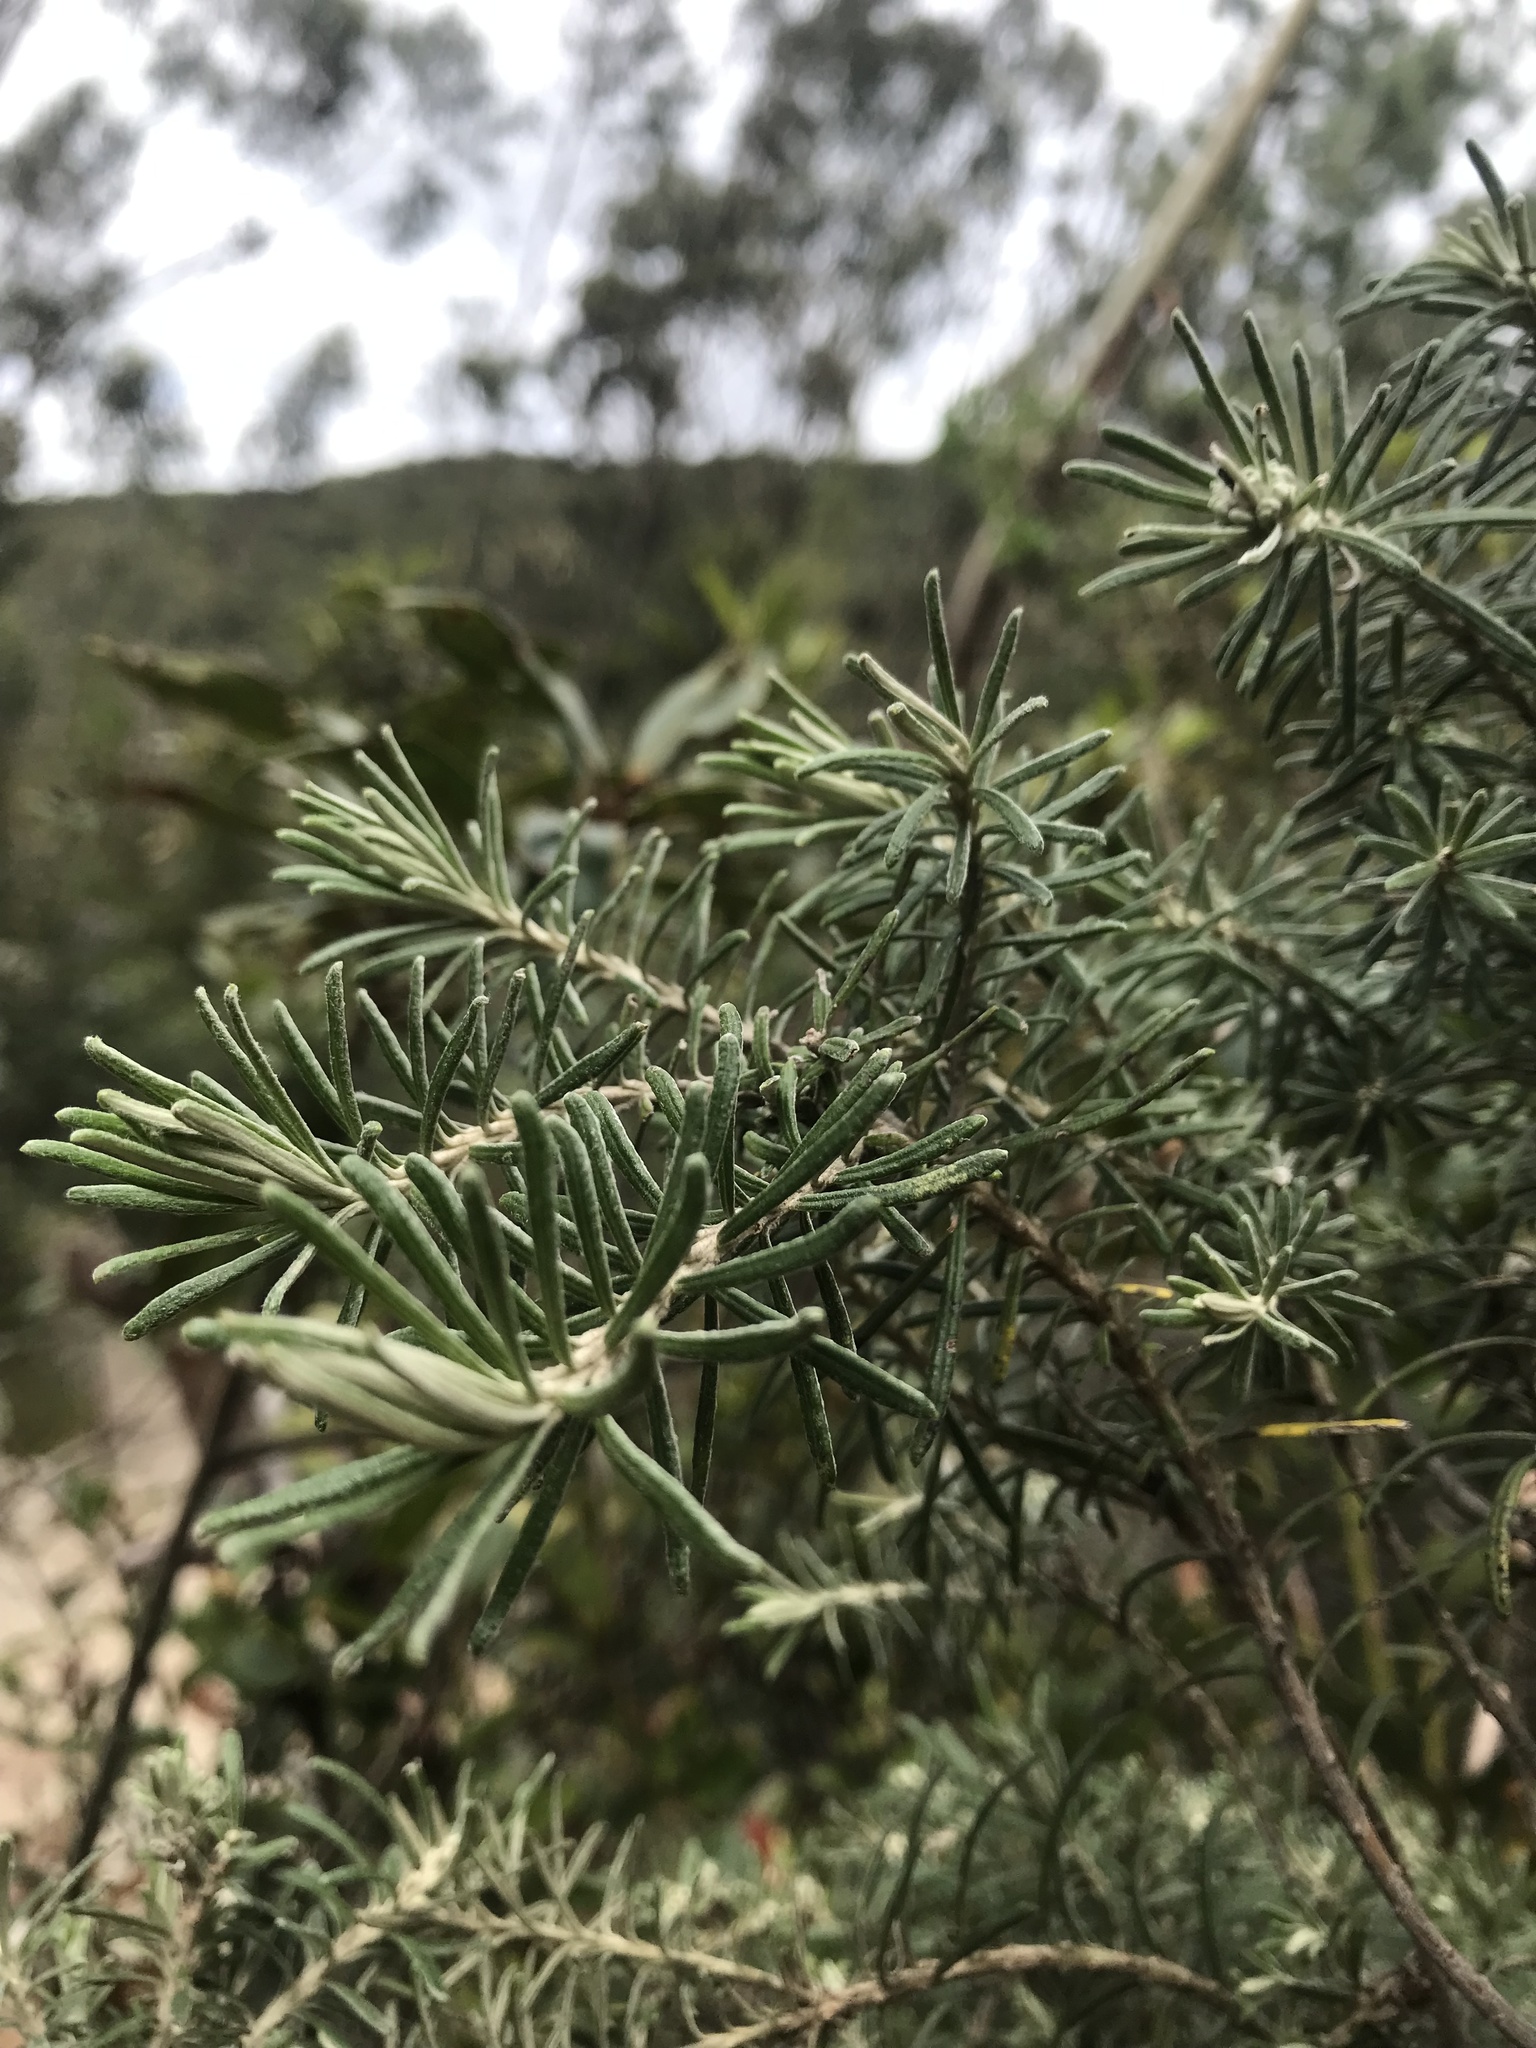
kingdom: Plantae
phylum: Tracheophyta
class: Magnoliopsida
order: Asterales
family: Asteraceae
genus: Linochilus
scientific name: Linochilus rosmarinifolius
